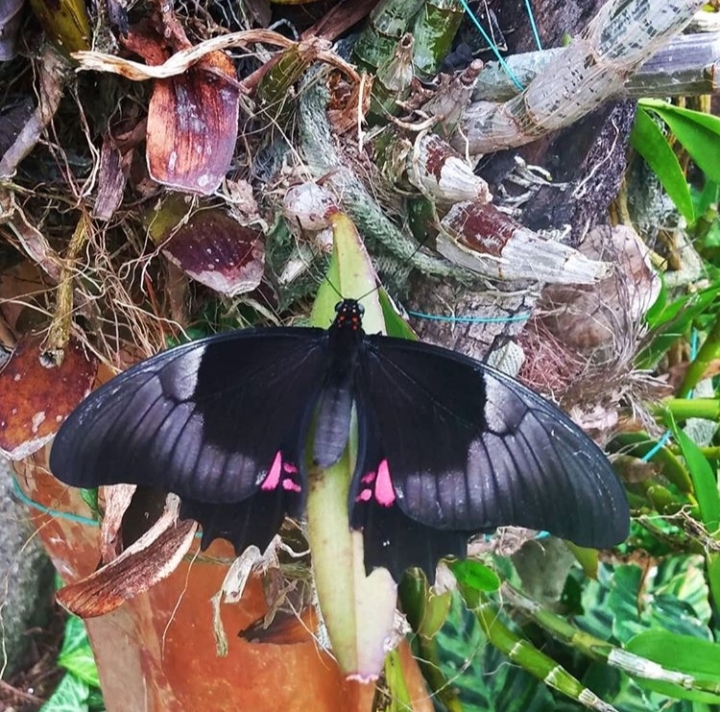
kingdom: Animalia
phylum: Arthropoda
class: Insecta
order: Lepidoptera
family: Papilionidae
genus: Papilio
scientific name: Papilio anchisiades
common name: Idaes swallowtail
